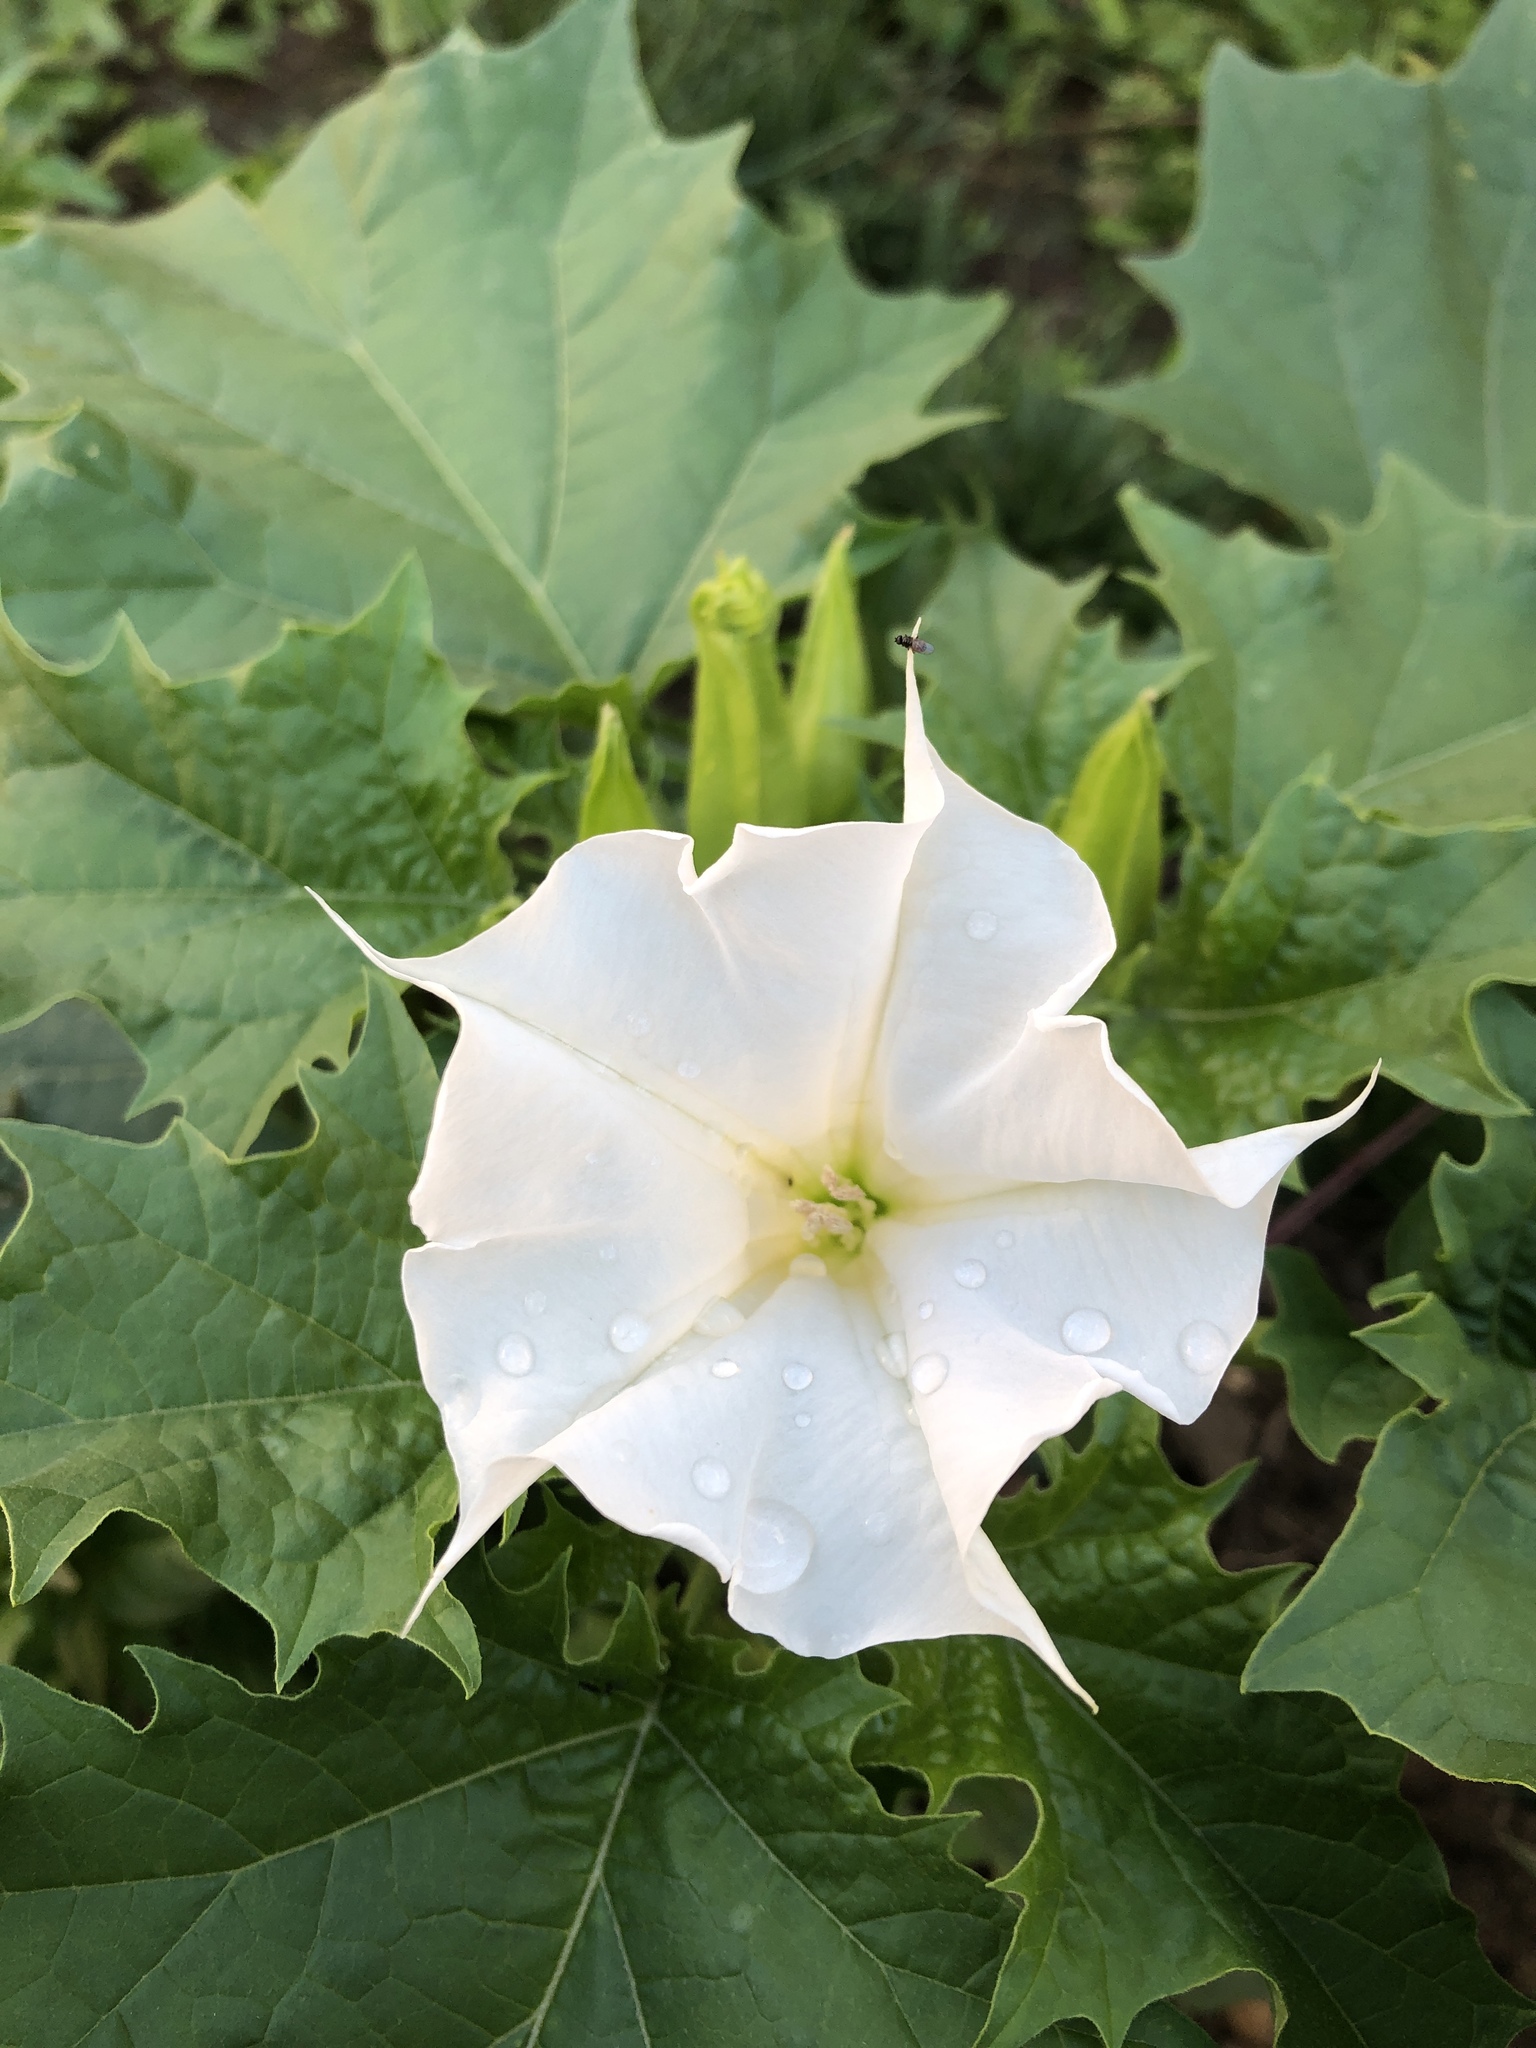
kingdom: Plantae
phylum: Tracheophyta
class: Magnoliopsida
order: Solanales
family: Solanaceae
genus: Datura
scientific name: Datura wrightii
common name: Sacred thorn-apple
